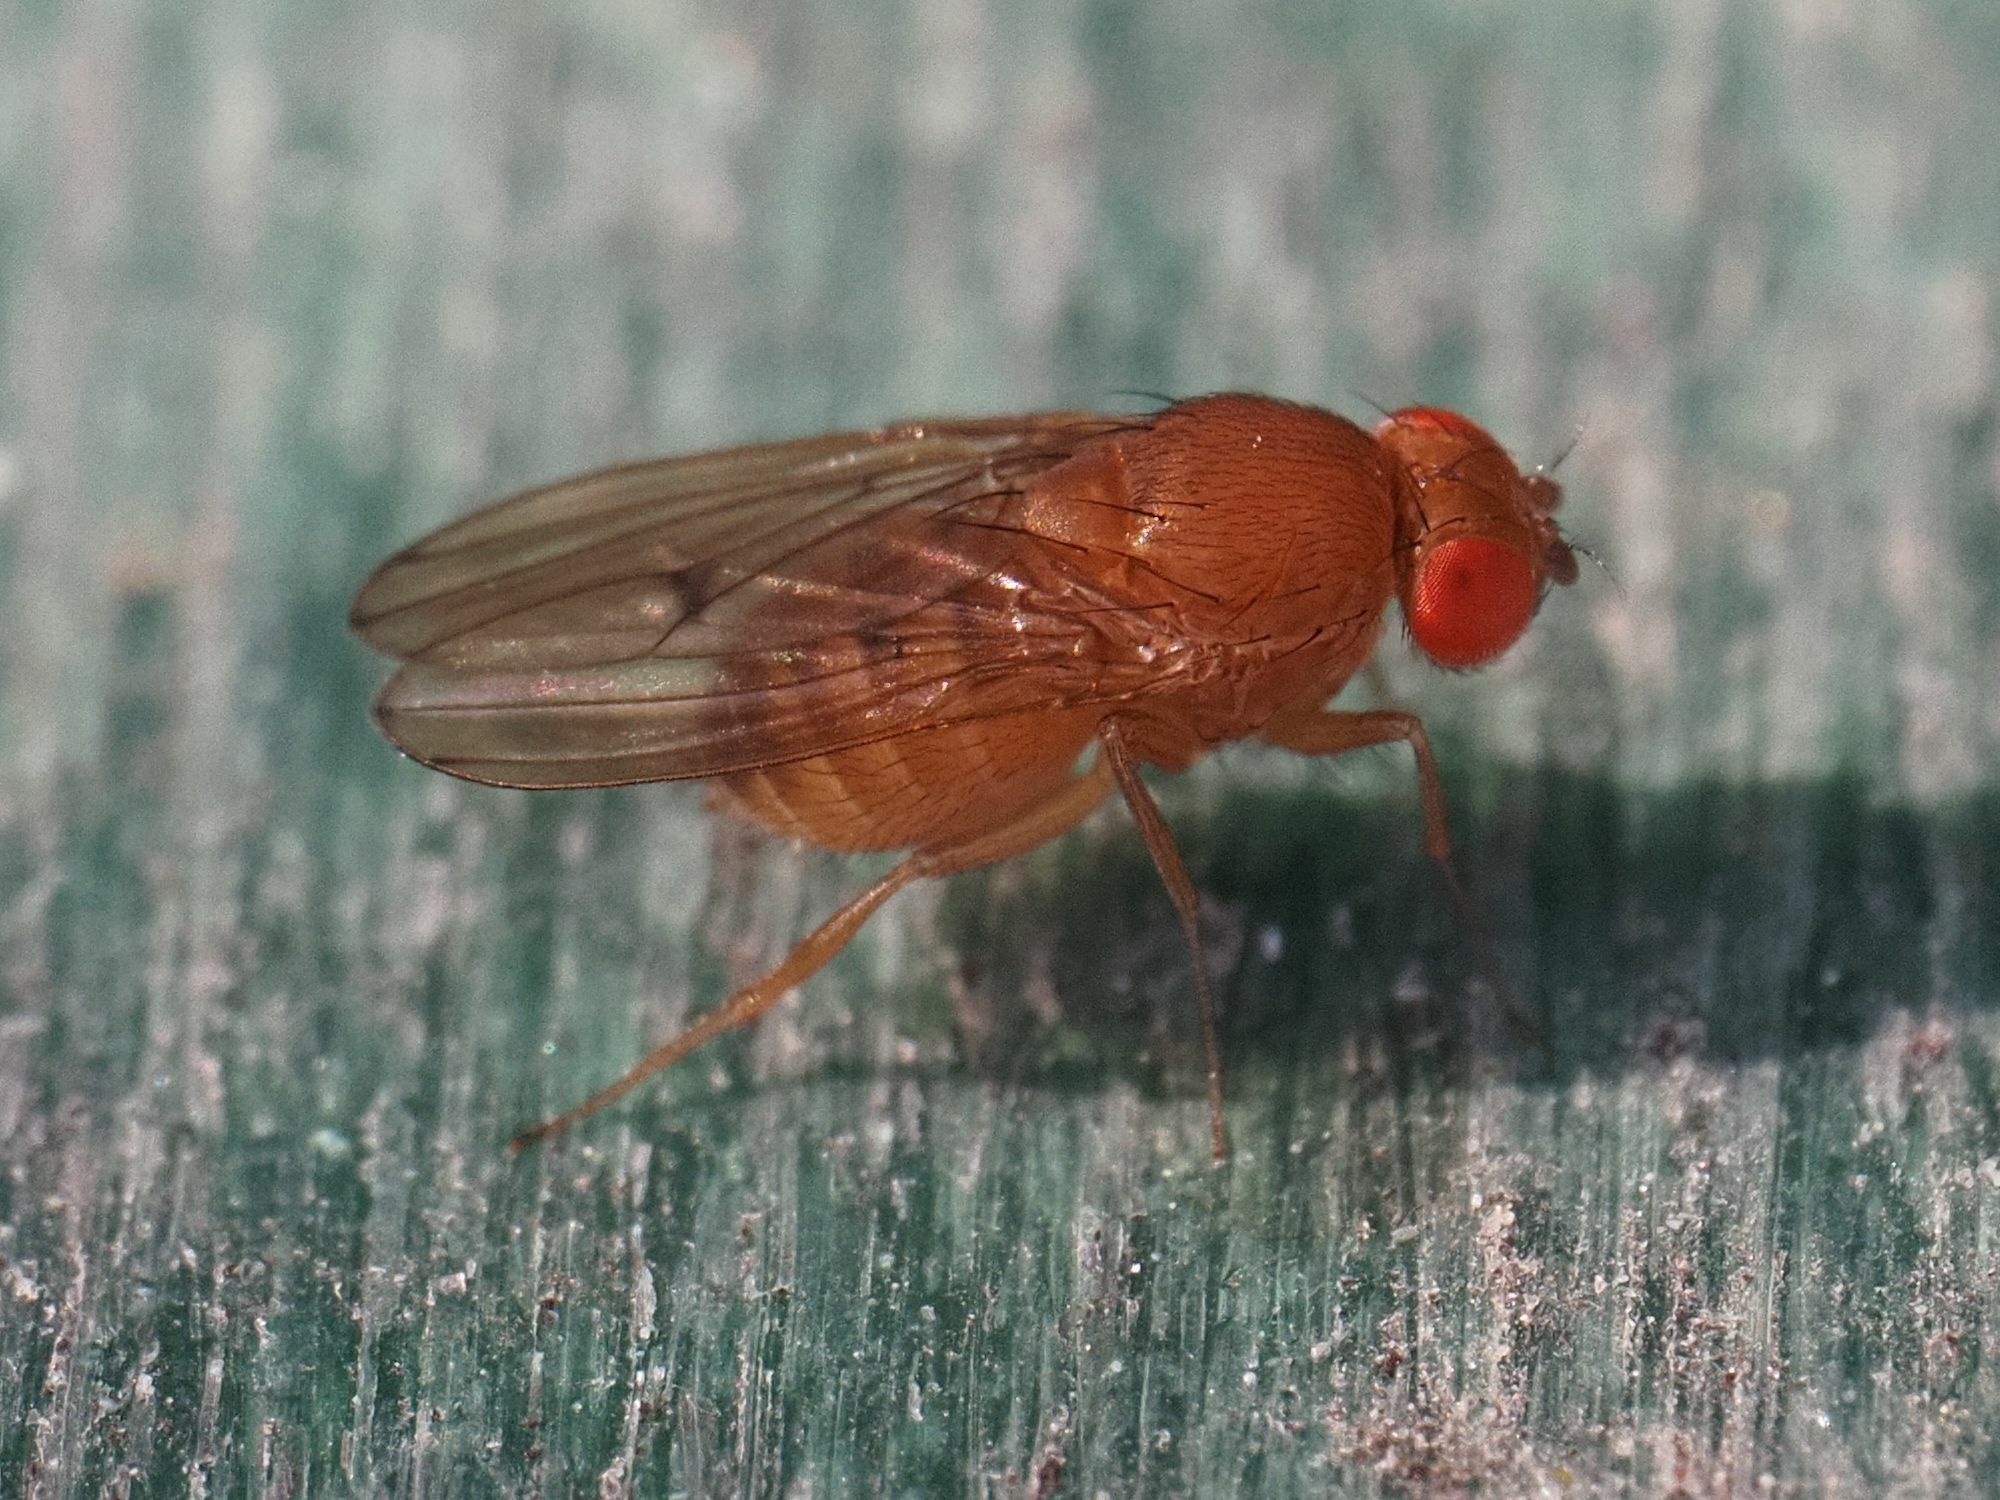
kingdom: Animalia
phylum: Arthropoda
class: Insecta
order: Diptera
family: Drosophilidae
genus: Drosophila
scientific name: Drosophila immigrans
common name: Pomace fly
